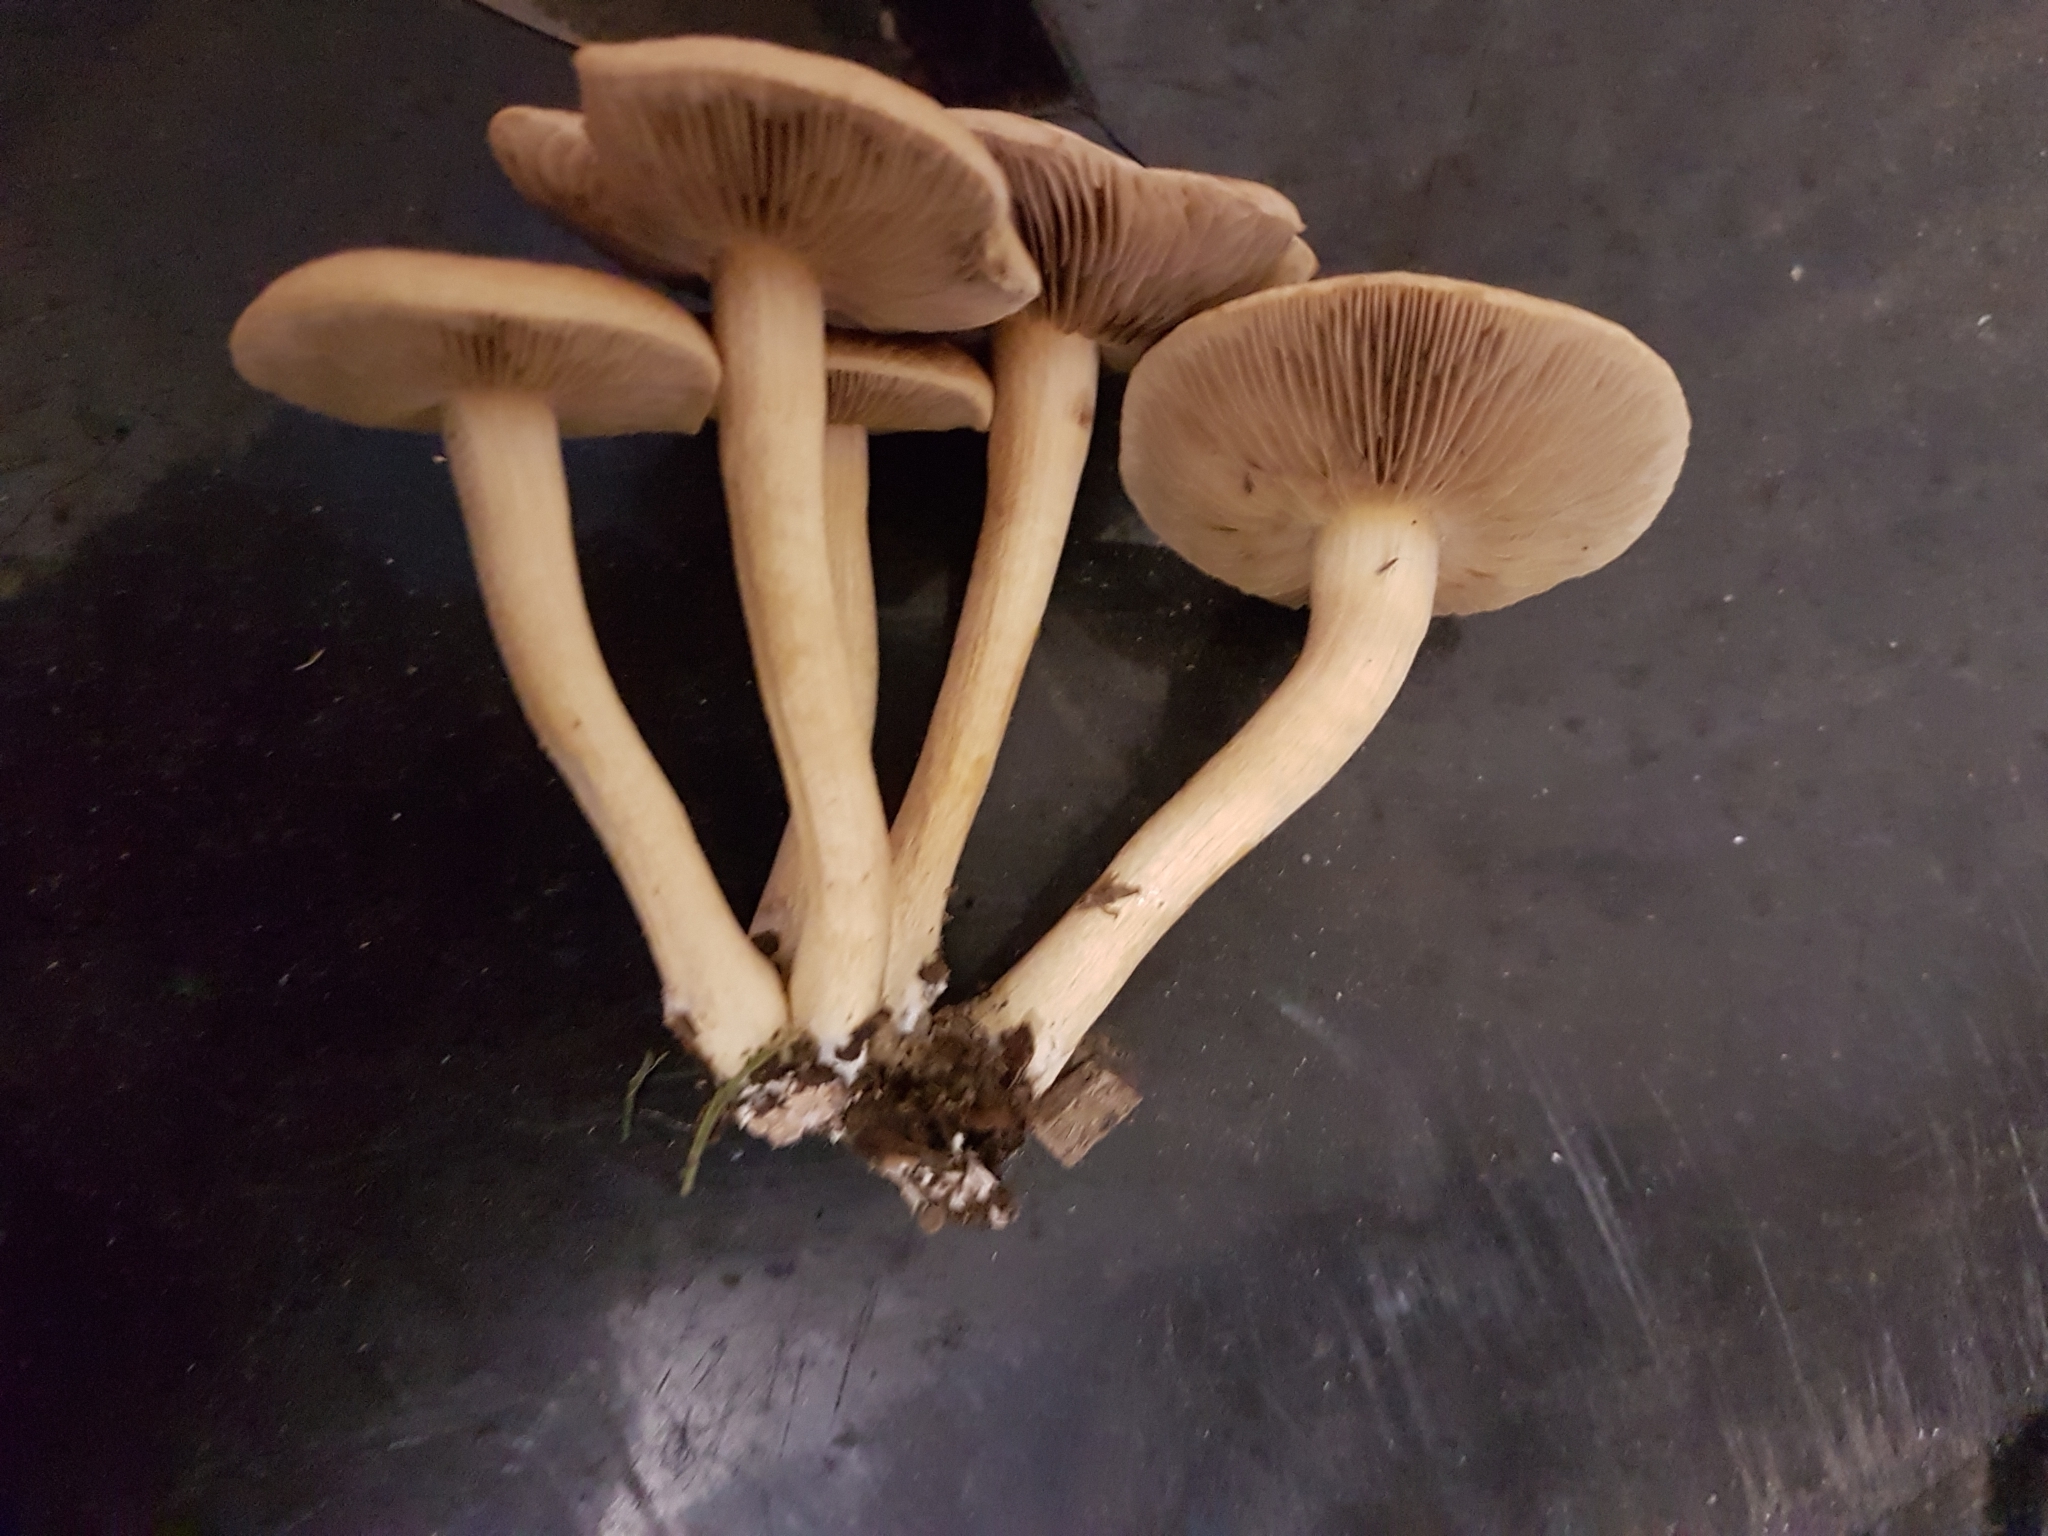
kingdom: Fungi
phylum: Basidiomycota
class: Agaricomycetes
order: Agaricales
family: Strophariaceae
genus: Agrocybe
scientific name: Agrocybe putaminum
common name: Mulch fieldcap
